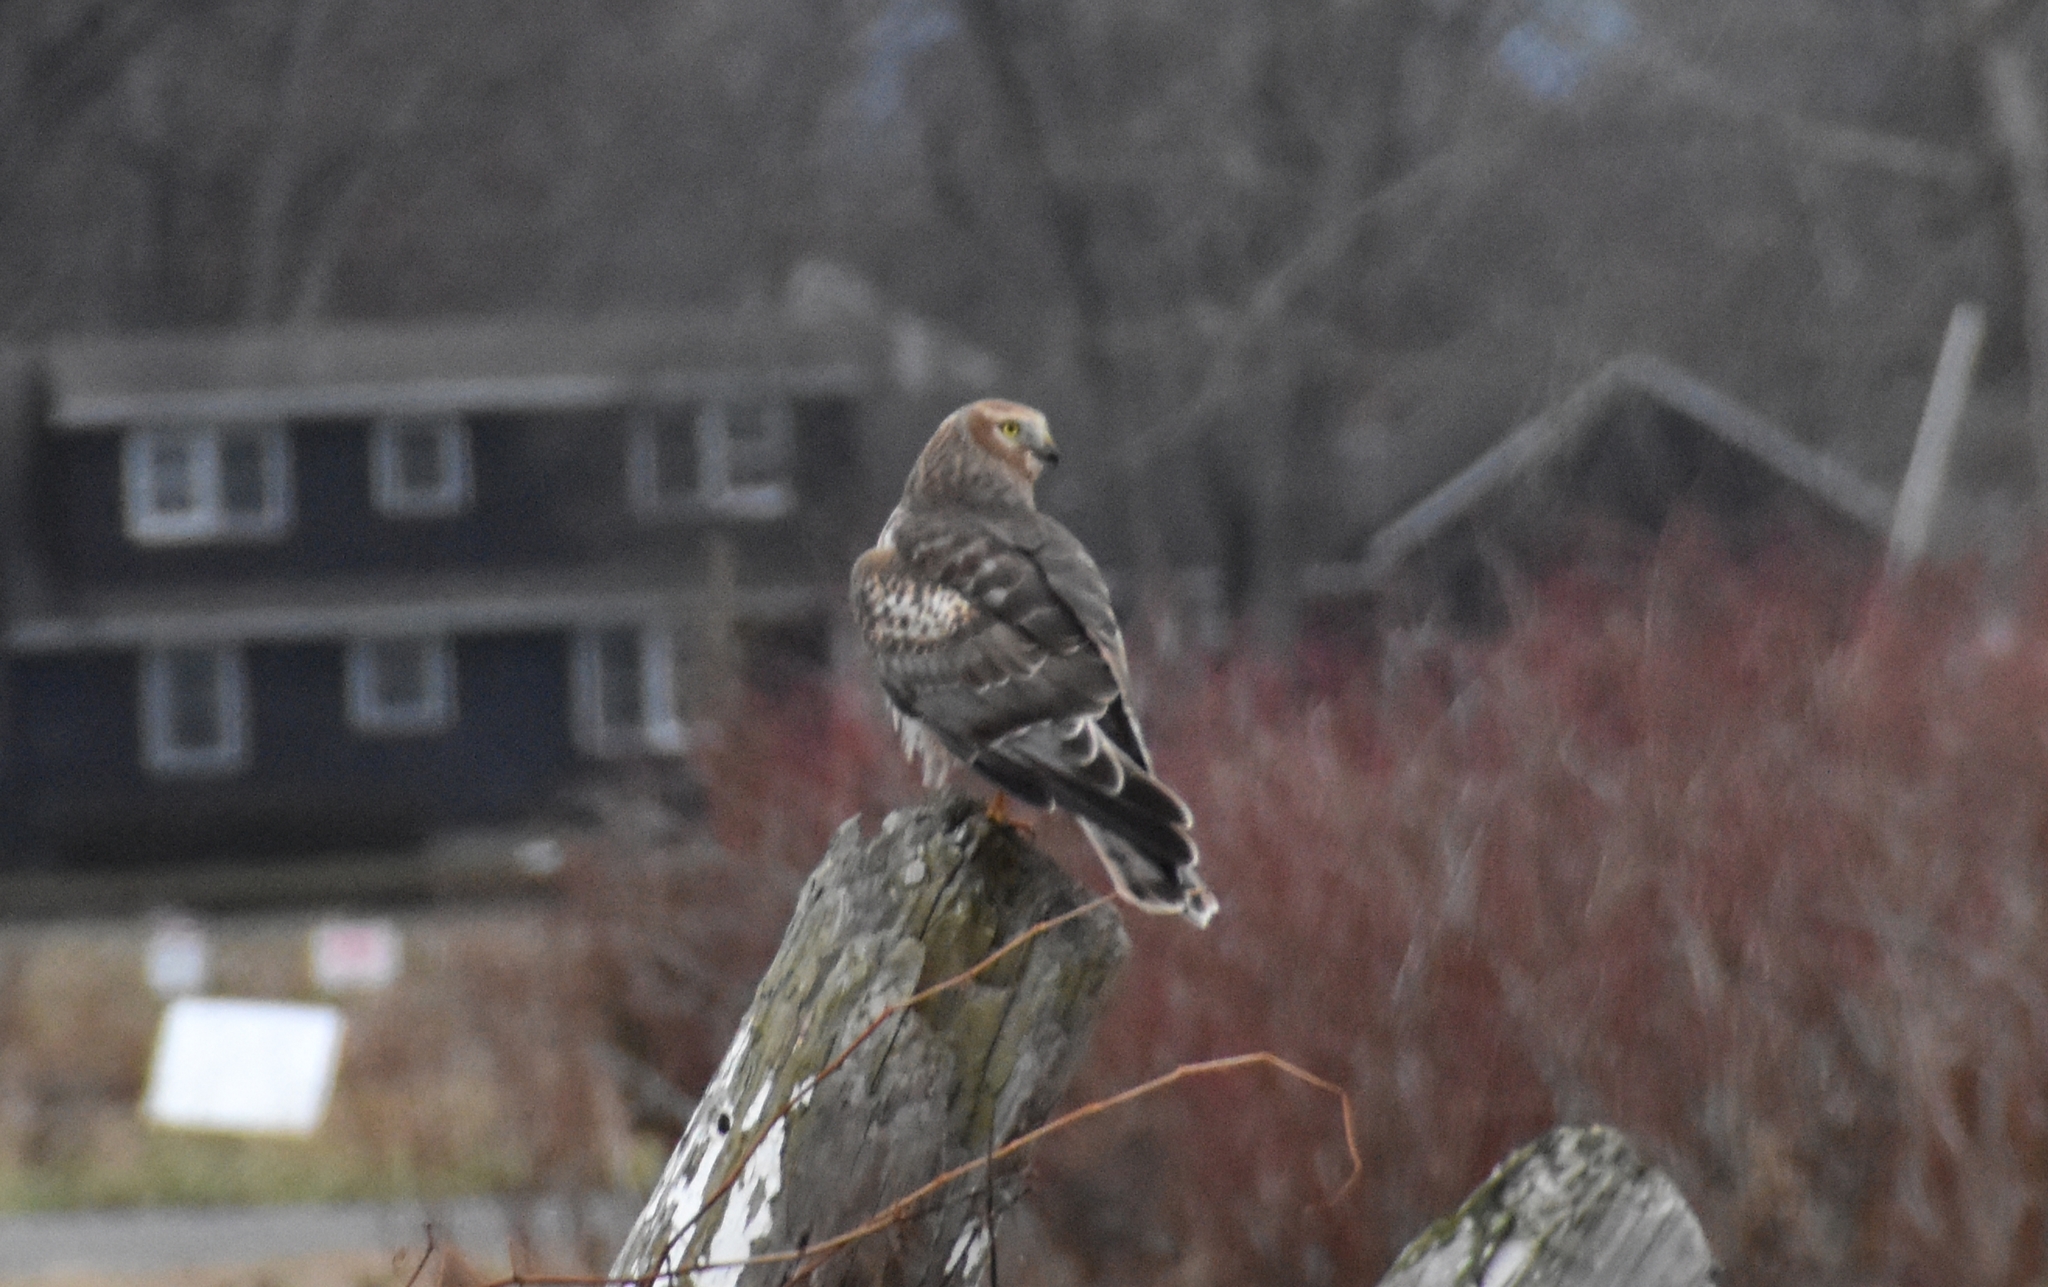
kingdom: Animalia
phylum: Chordata
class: Aves
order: Accipitriformes
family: Accipitridae
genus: Circus
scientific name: Circus cyaneus
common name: Hen harrier
